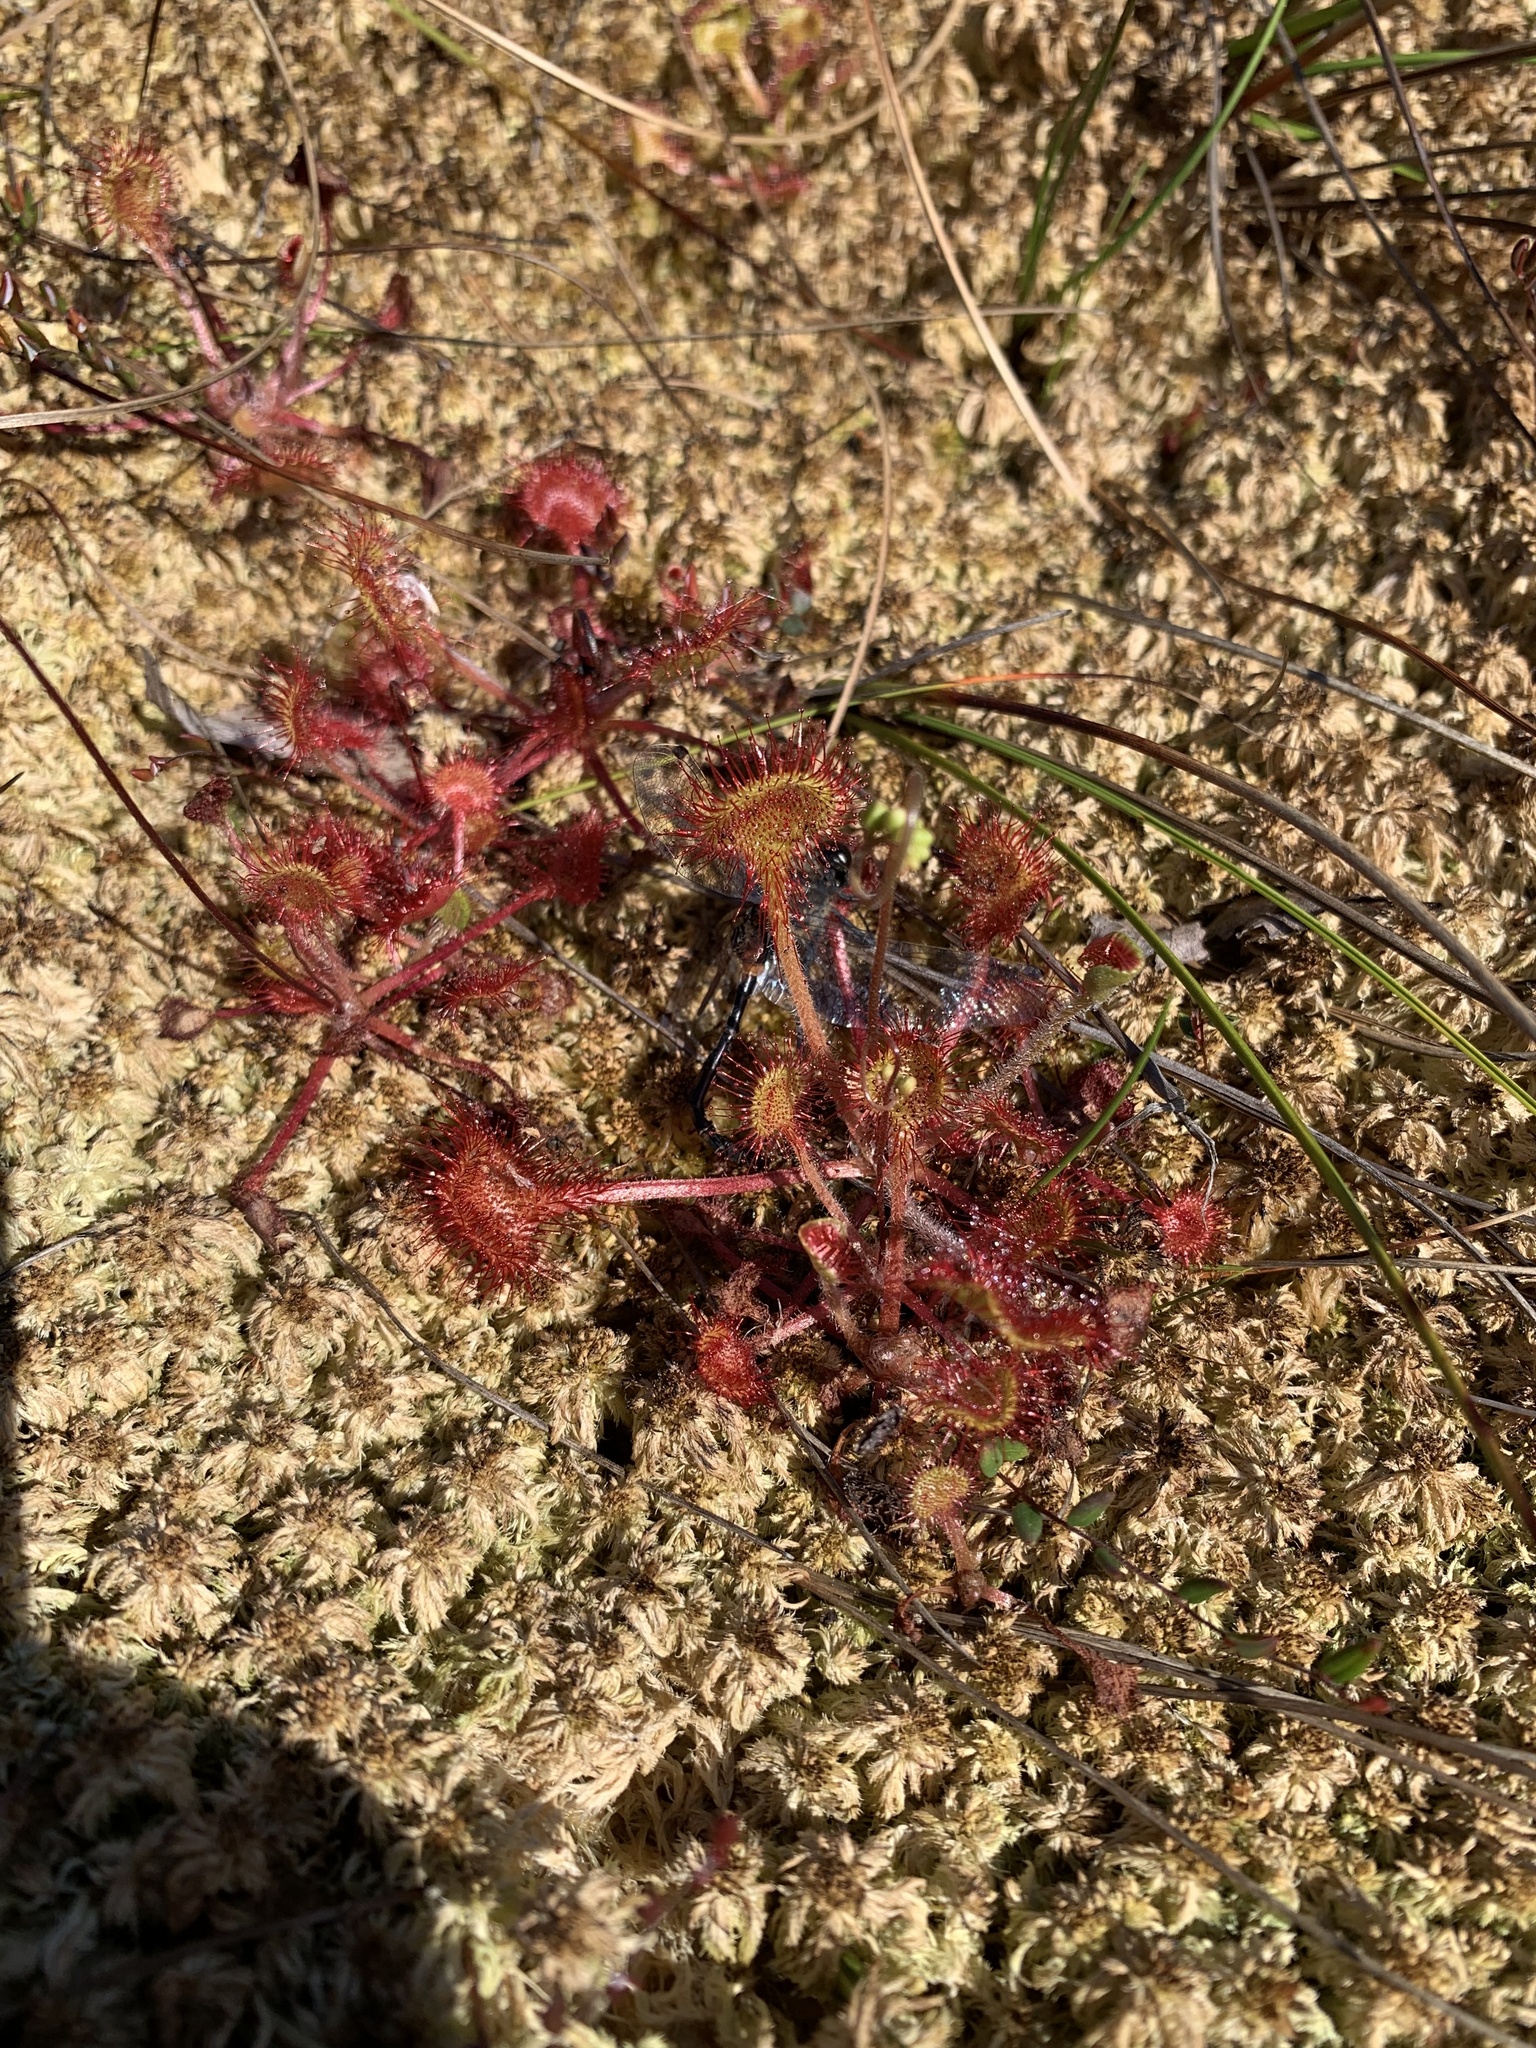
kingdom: Plantae
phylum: Tracheophyta
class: Magnoliopsida
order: Caryophyllales
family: Droseraceae
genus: Drosera
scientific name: Drosera rotundifolia
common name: Round-leaved sundew
